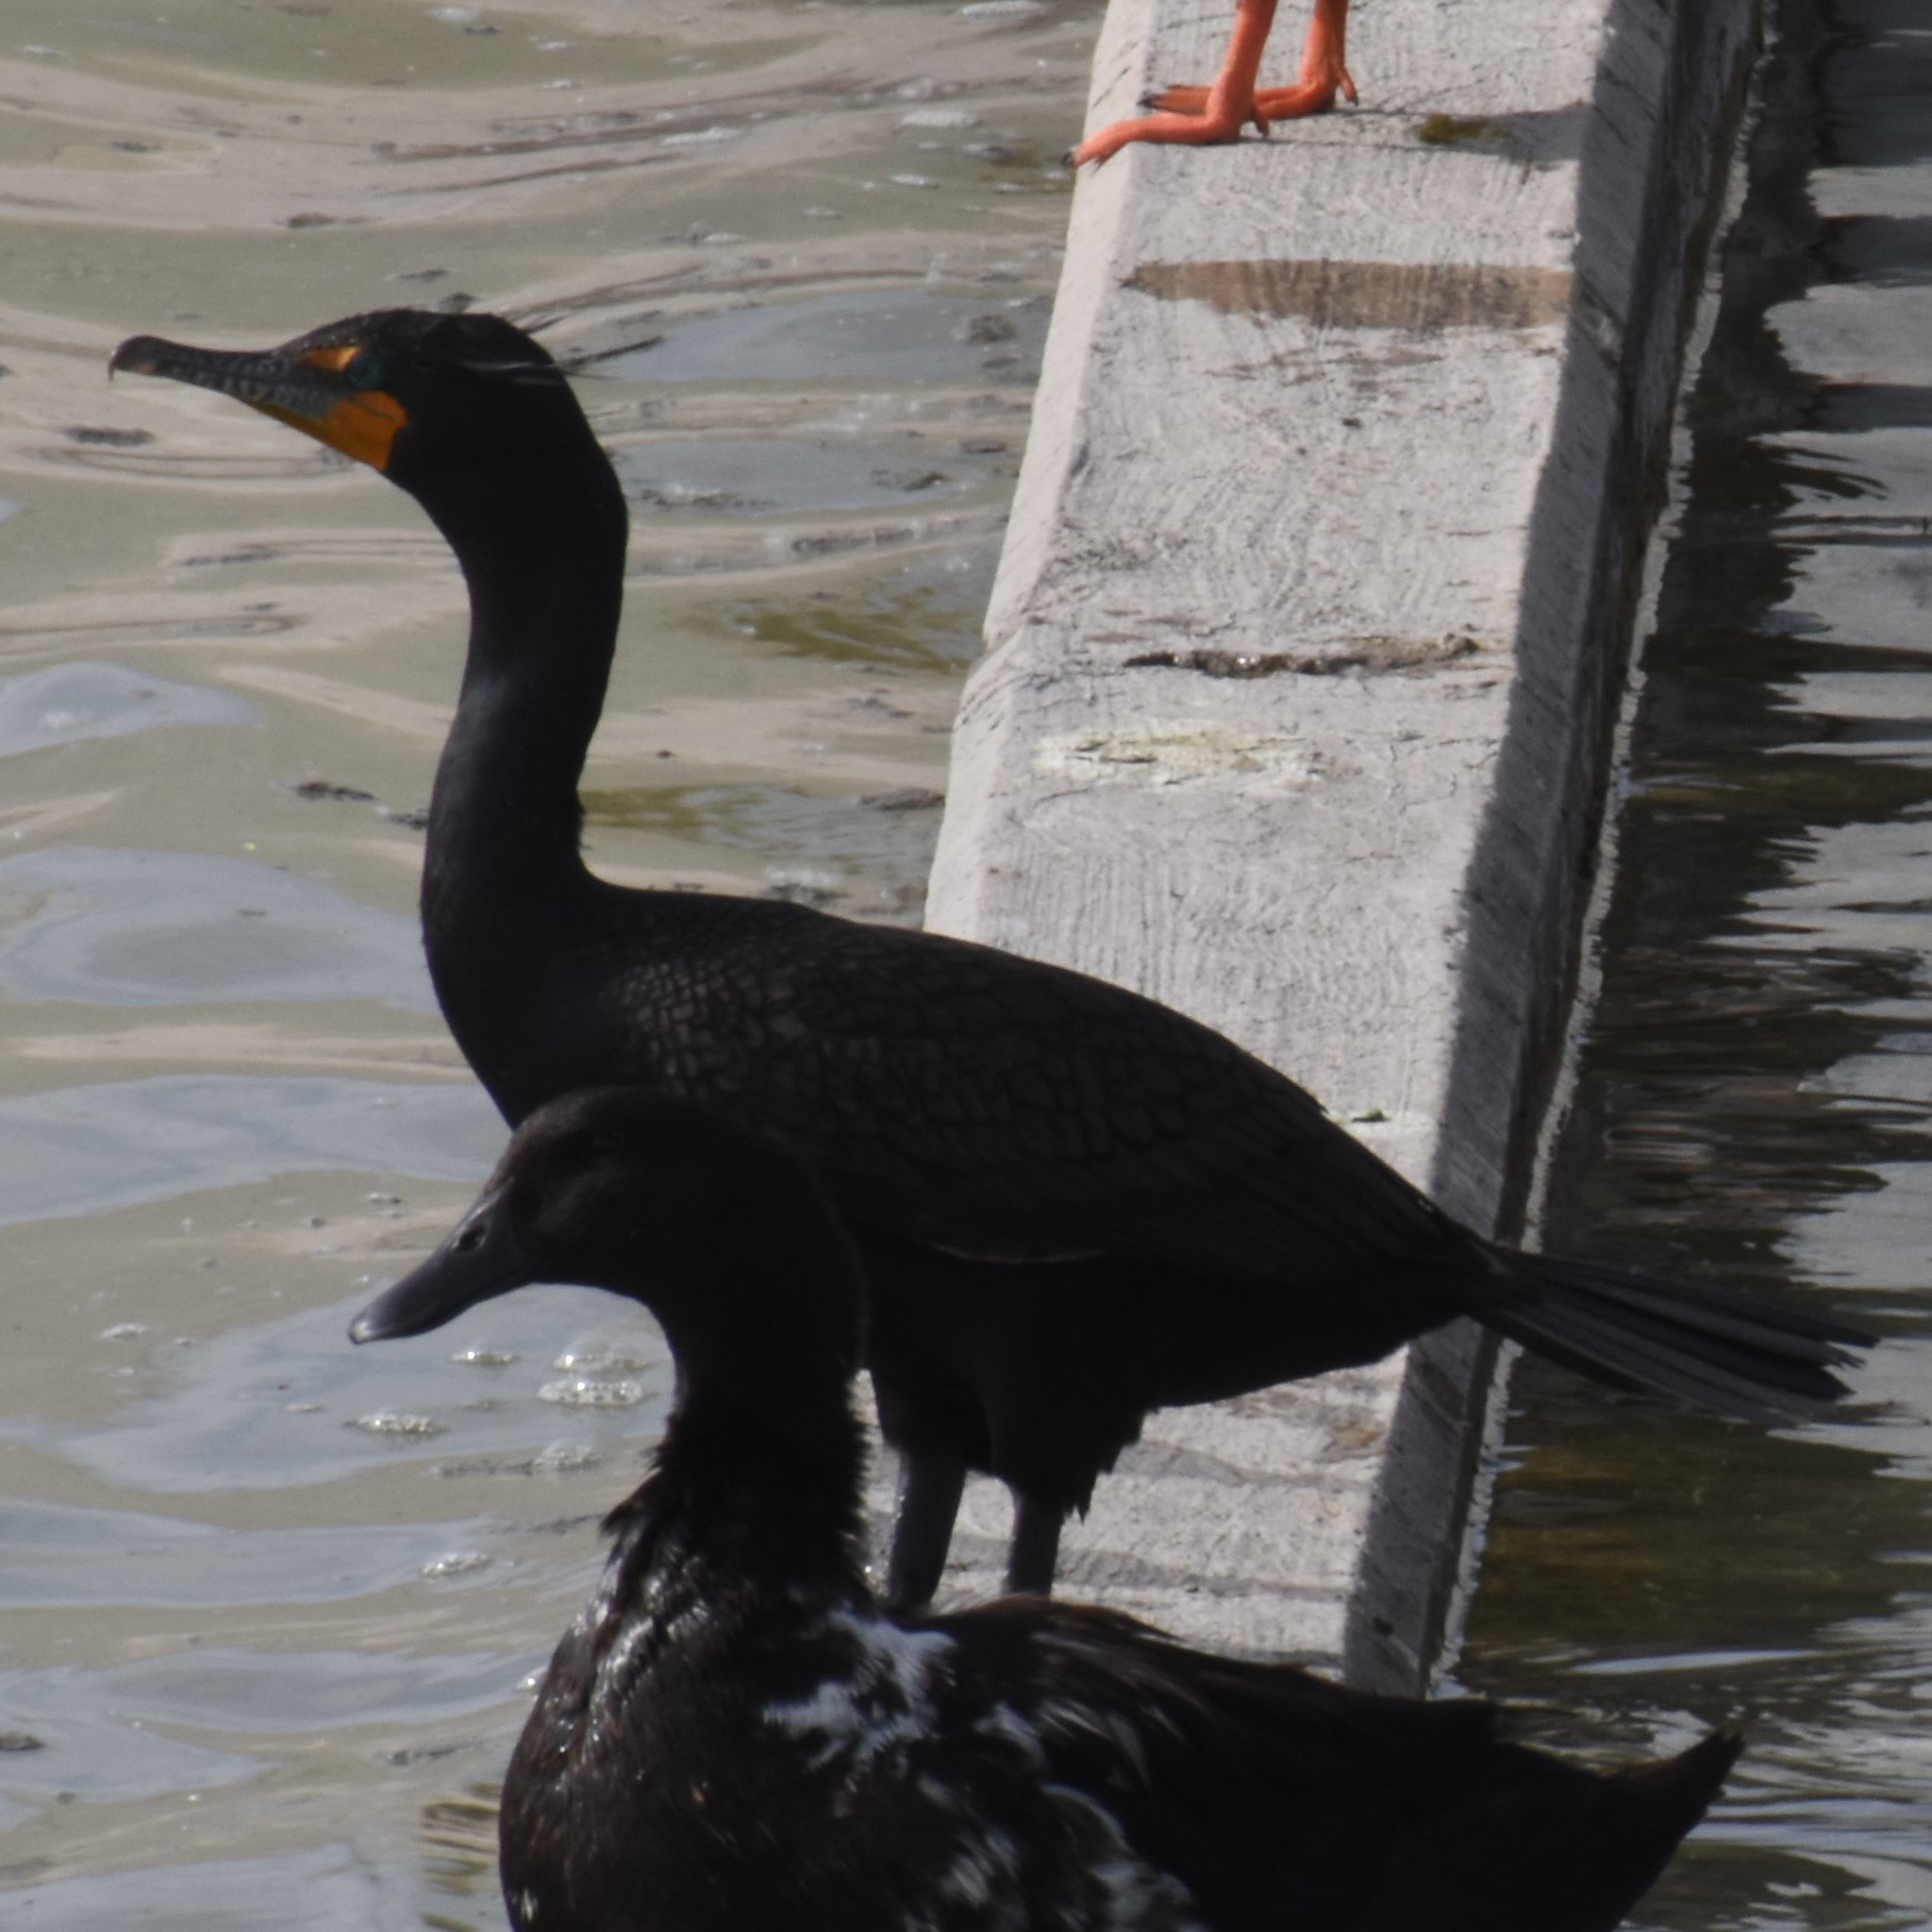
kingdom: Animalia
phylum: Chordata
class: Aves
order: Suliformes
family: Phalacrocoracidae
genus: Phalacrocorax
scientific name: Phalacrocorax auritus
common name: Double-crested cormorant
